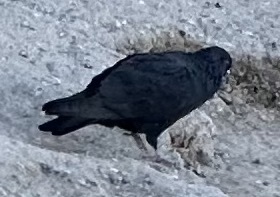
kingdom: Animalia
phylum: Chordata
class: Aves
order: Columbiformes
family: Columbidae
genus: Columba
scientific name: Columba livia
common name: Rock pigeon
